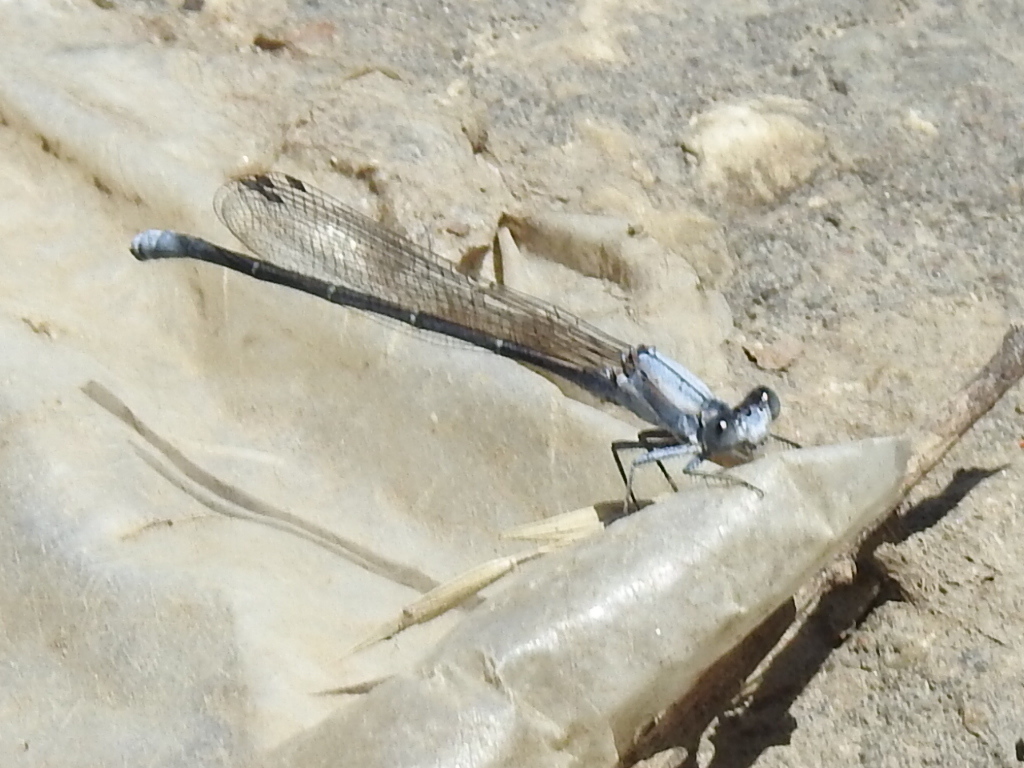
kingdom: Animalia
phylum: Arthropoda
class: Insecta
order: Odonata
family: Coenagrionidae
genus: Argia
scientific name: Argia moesta
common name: Powdered dancer
